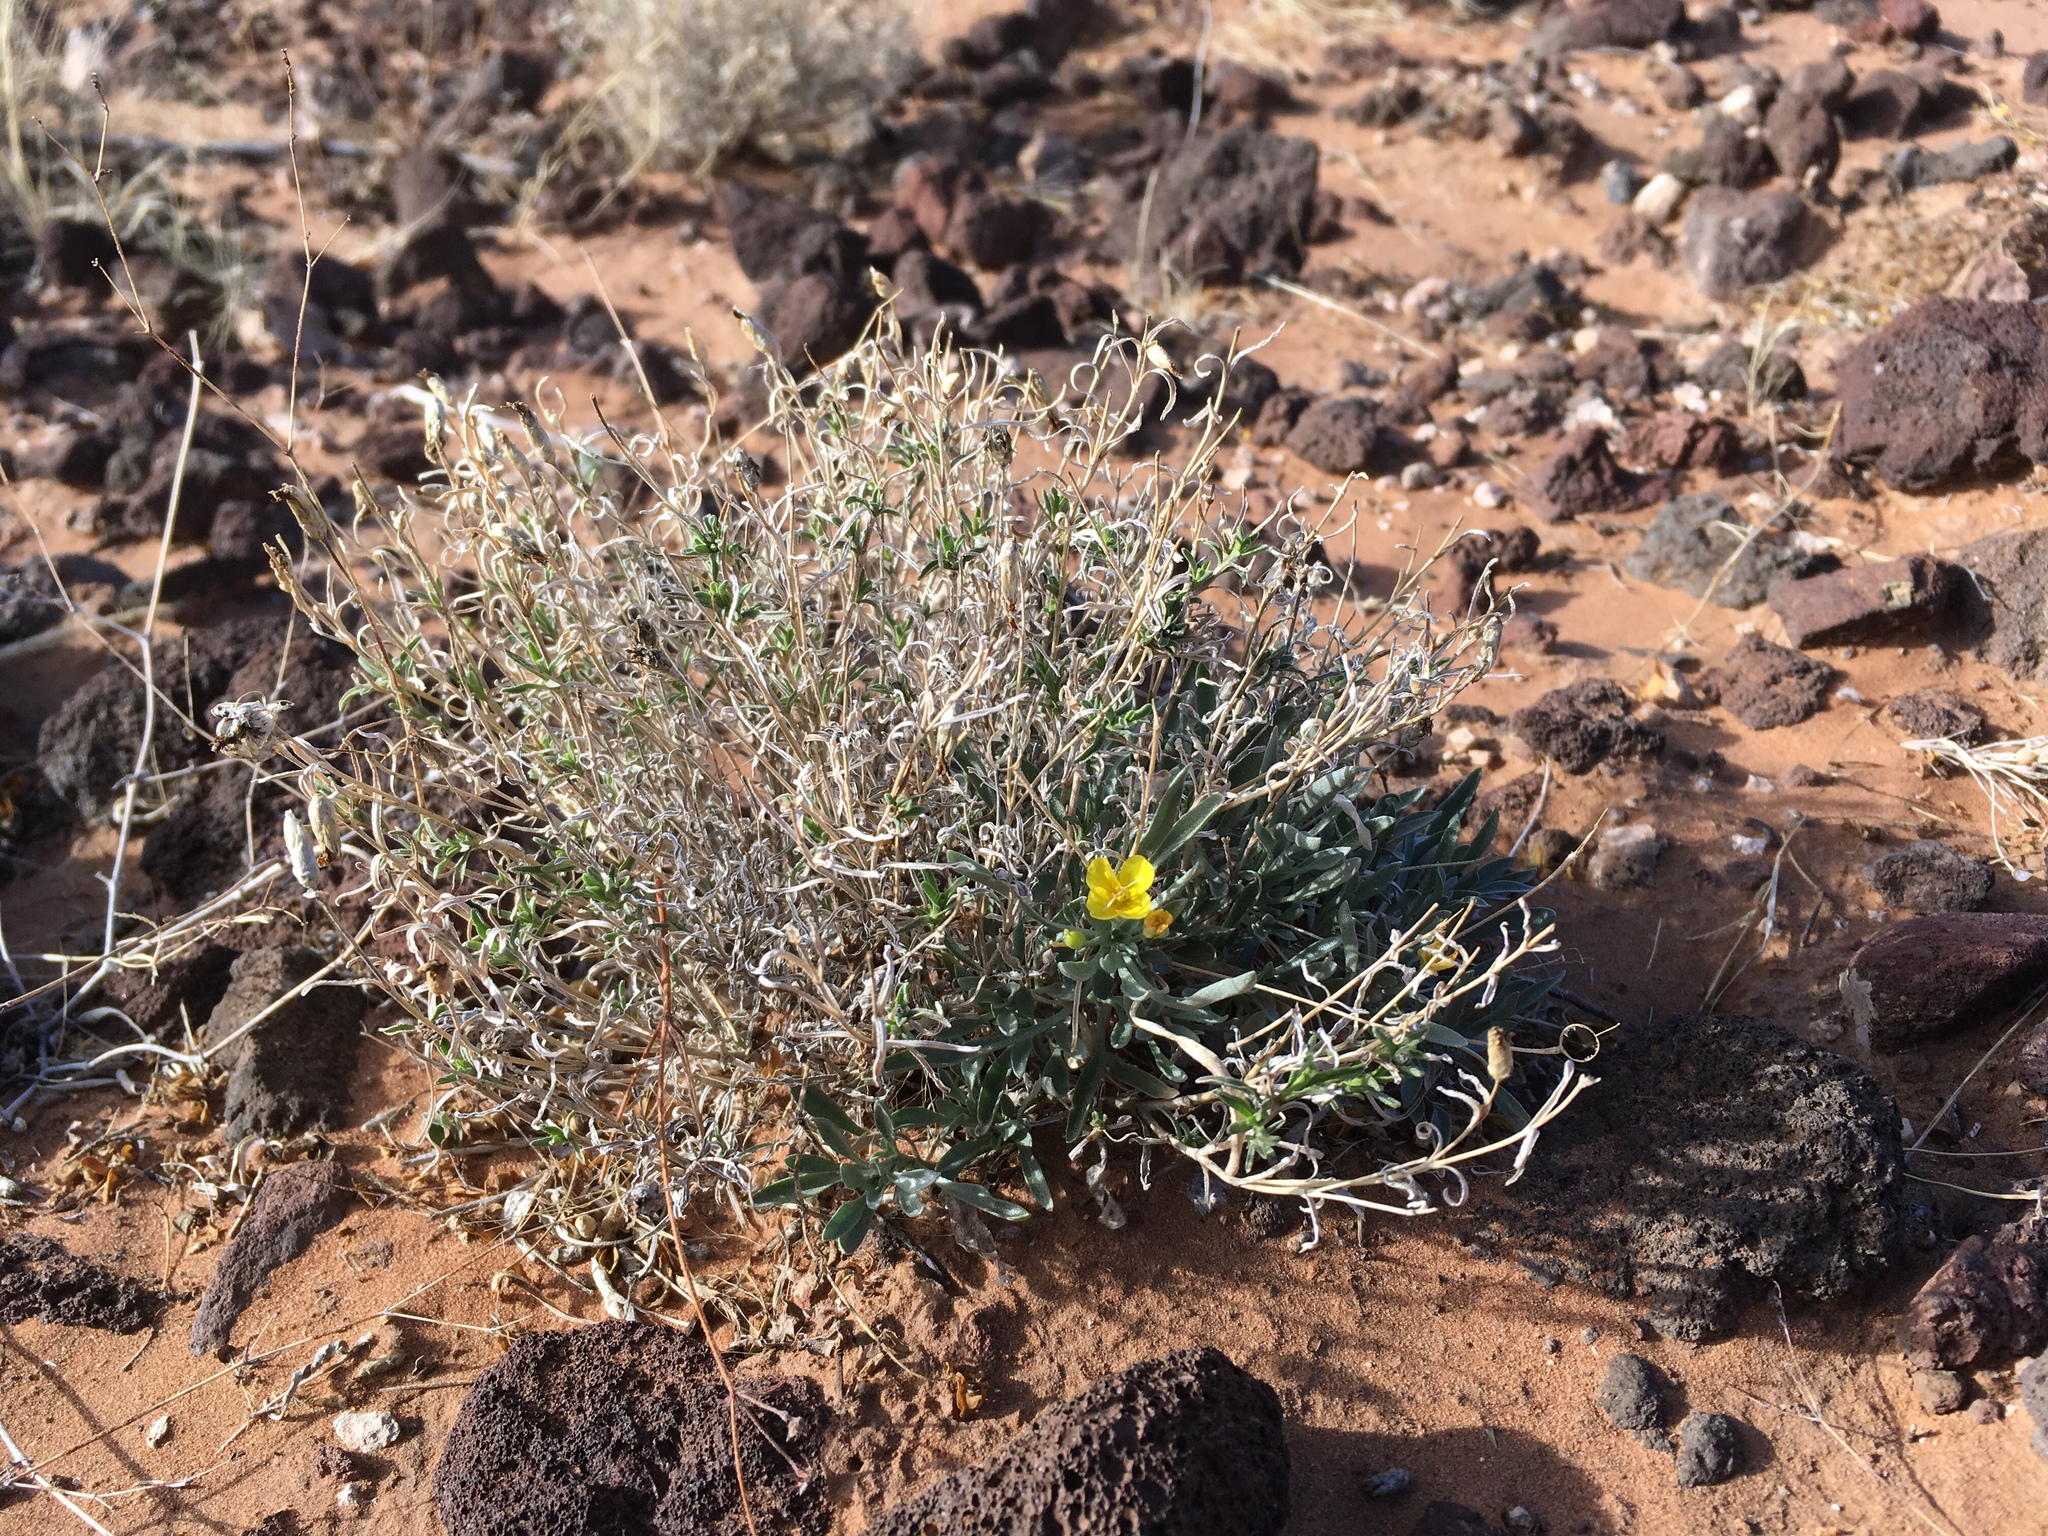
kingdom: Plantae
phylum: Tracheophyta
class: Magnoliopsida
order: Brassicales
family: Brassicaceae
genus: Physaria
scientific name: Physaria fendleri
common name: Fendler's bladderpod
